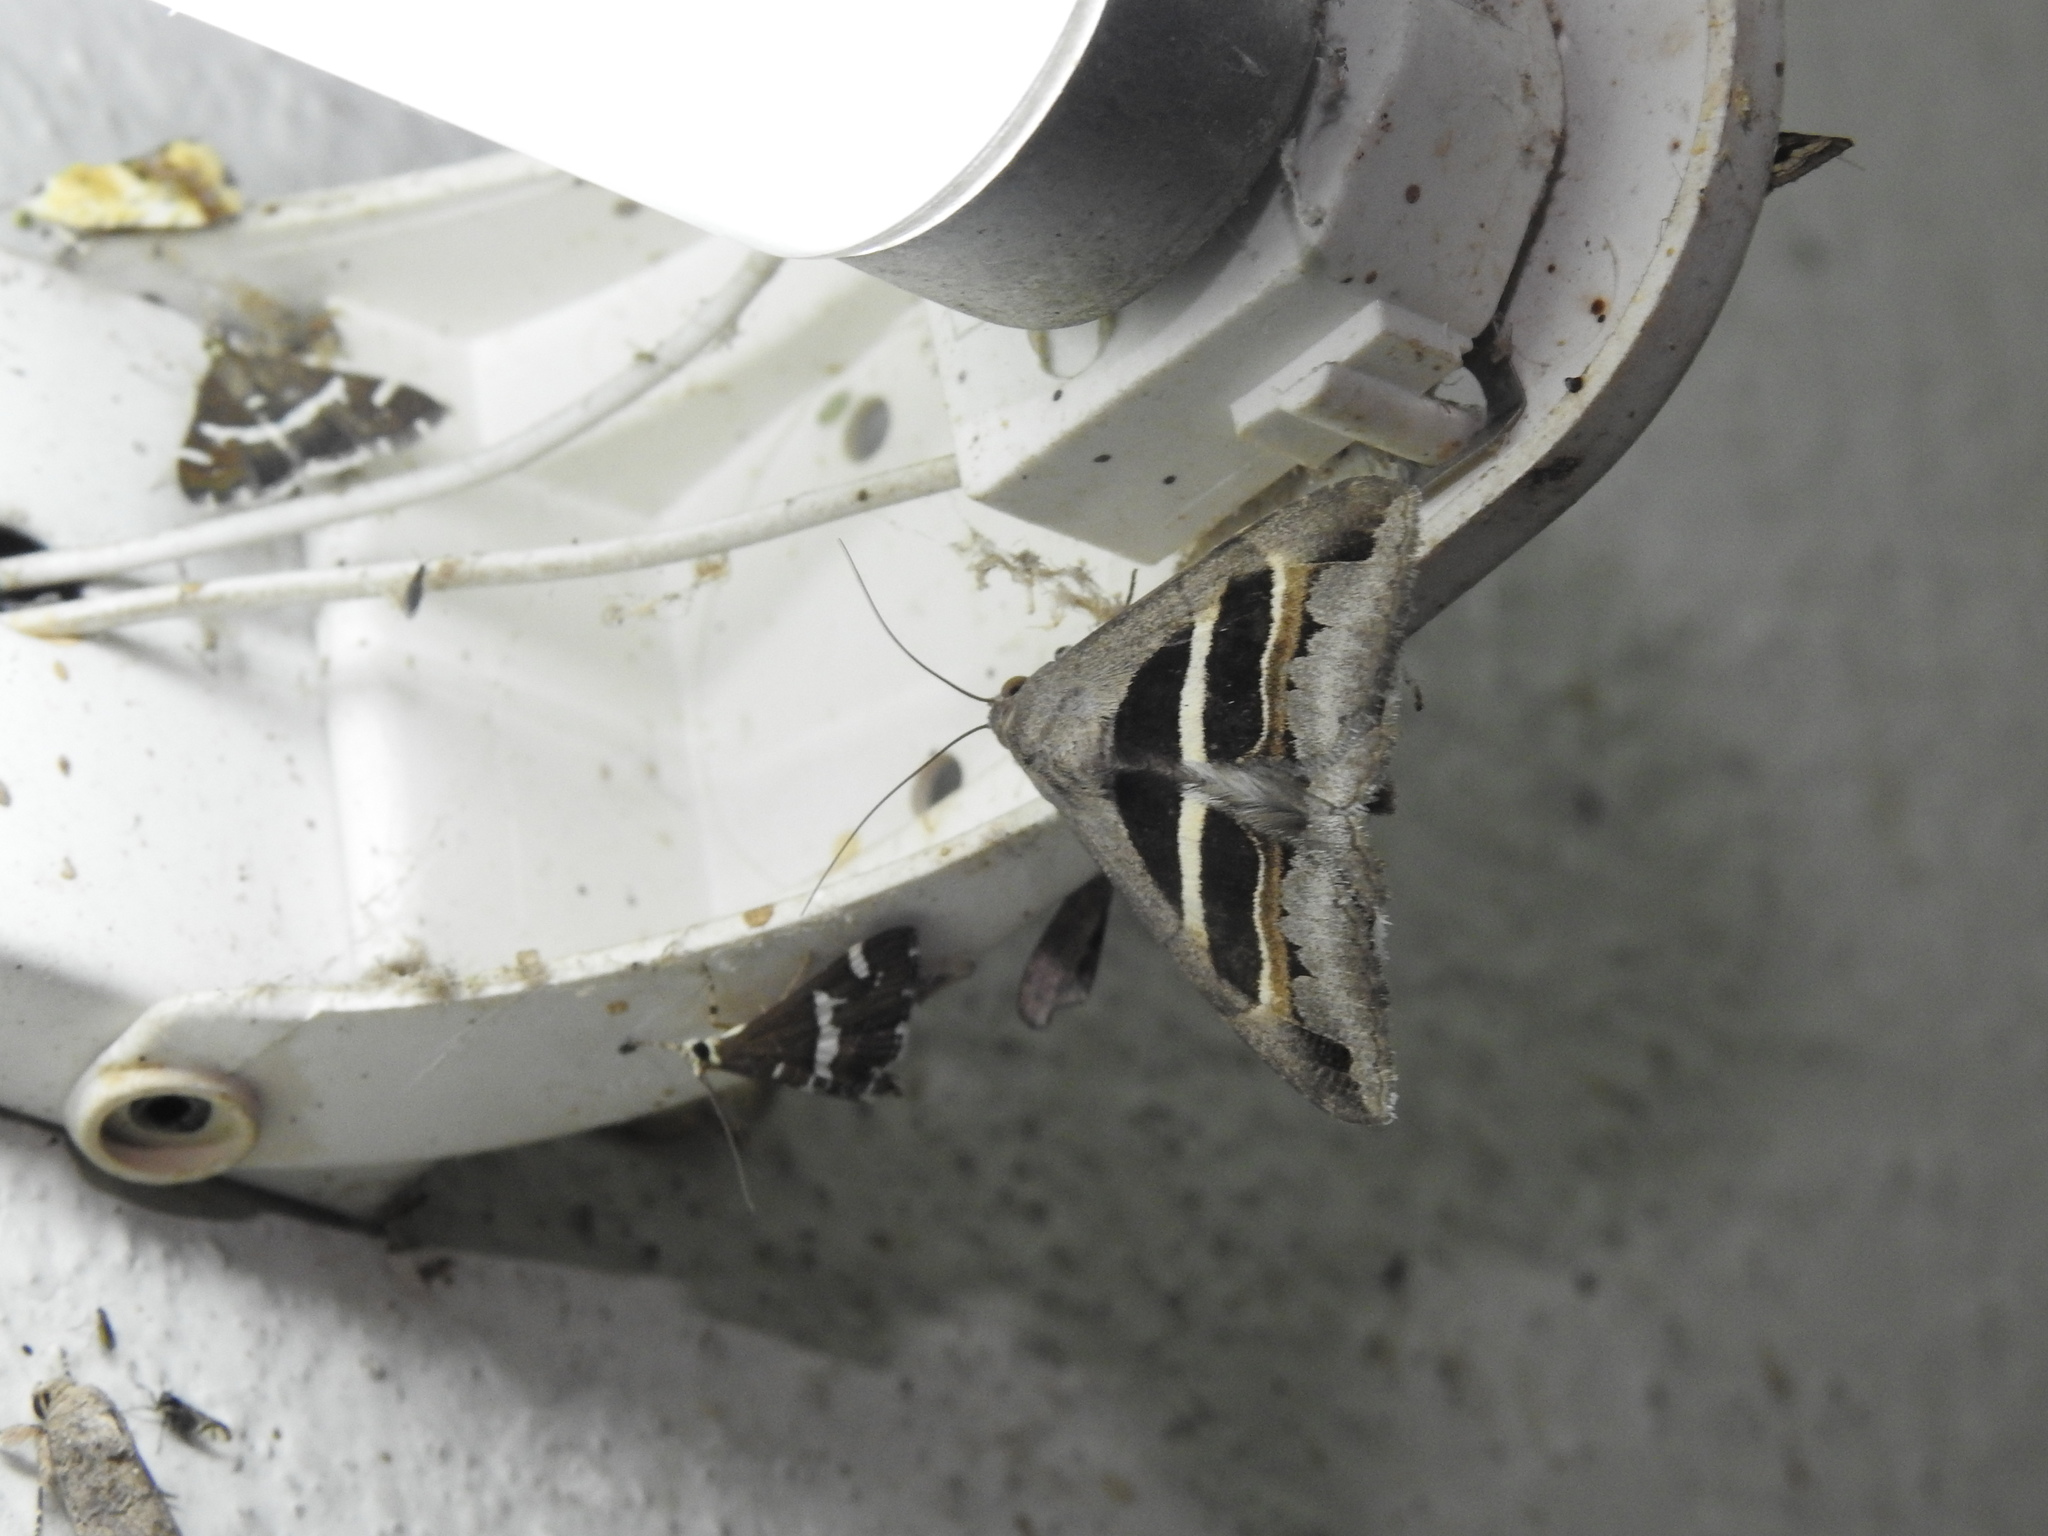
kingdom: Animalia
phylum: Arthropoda
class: Insecta
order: Lepidoptera
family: Erebidae
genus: Grammodes
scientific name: Grammodes geometrica
